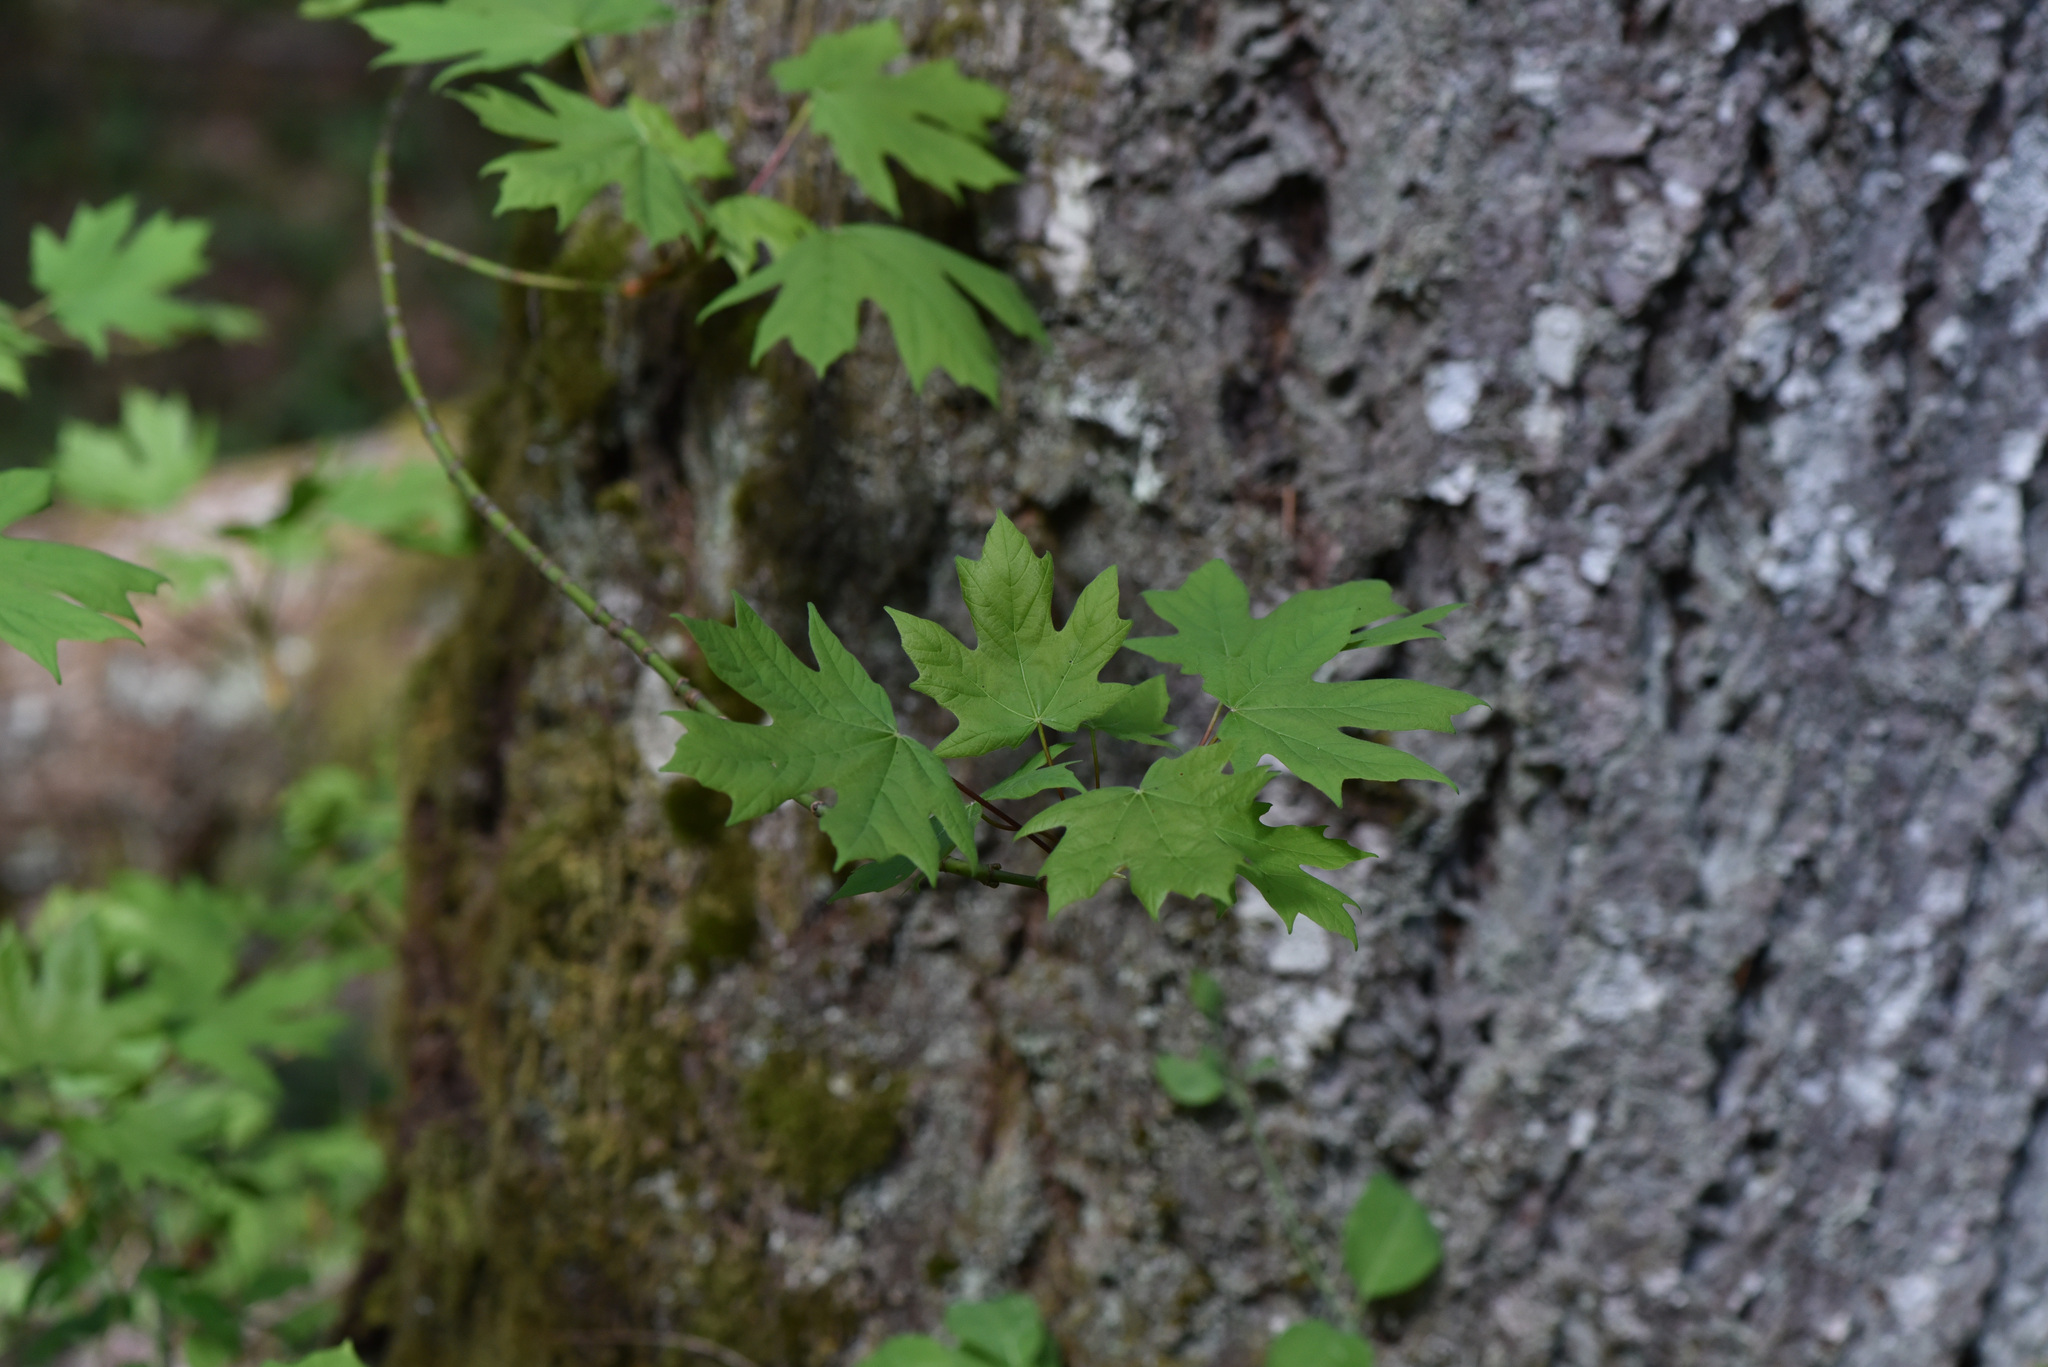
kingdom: Plantae
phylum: Tracheophyta
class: Magnoliopsida
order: Sapindales
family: Sapindaceae
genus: Acer
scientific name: Acer macrophyllum
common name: Oregon maple
